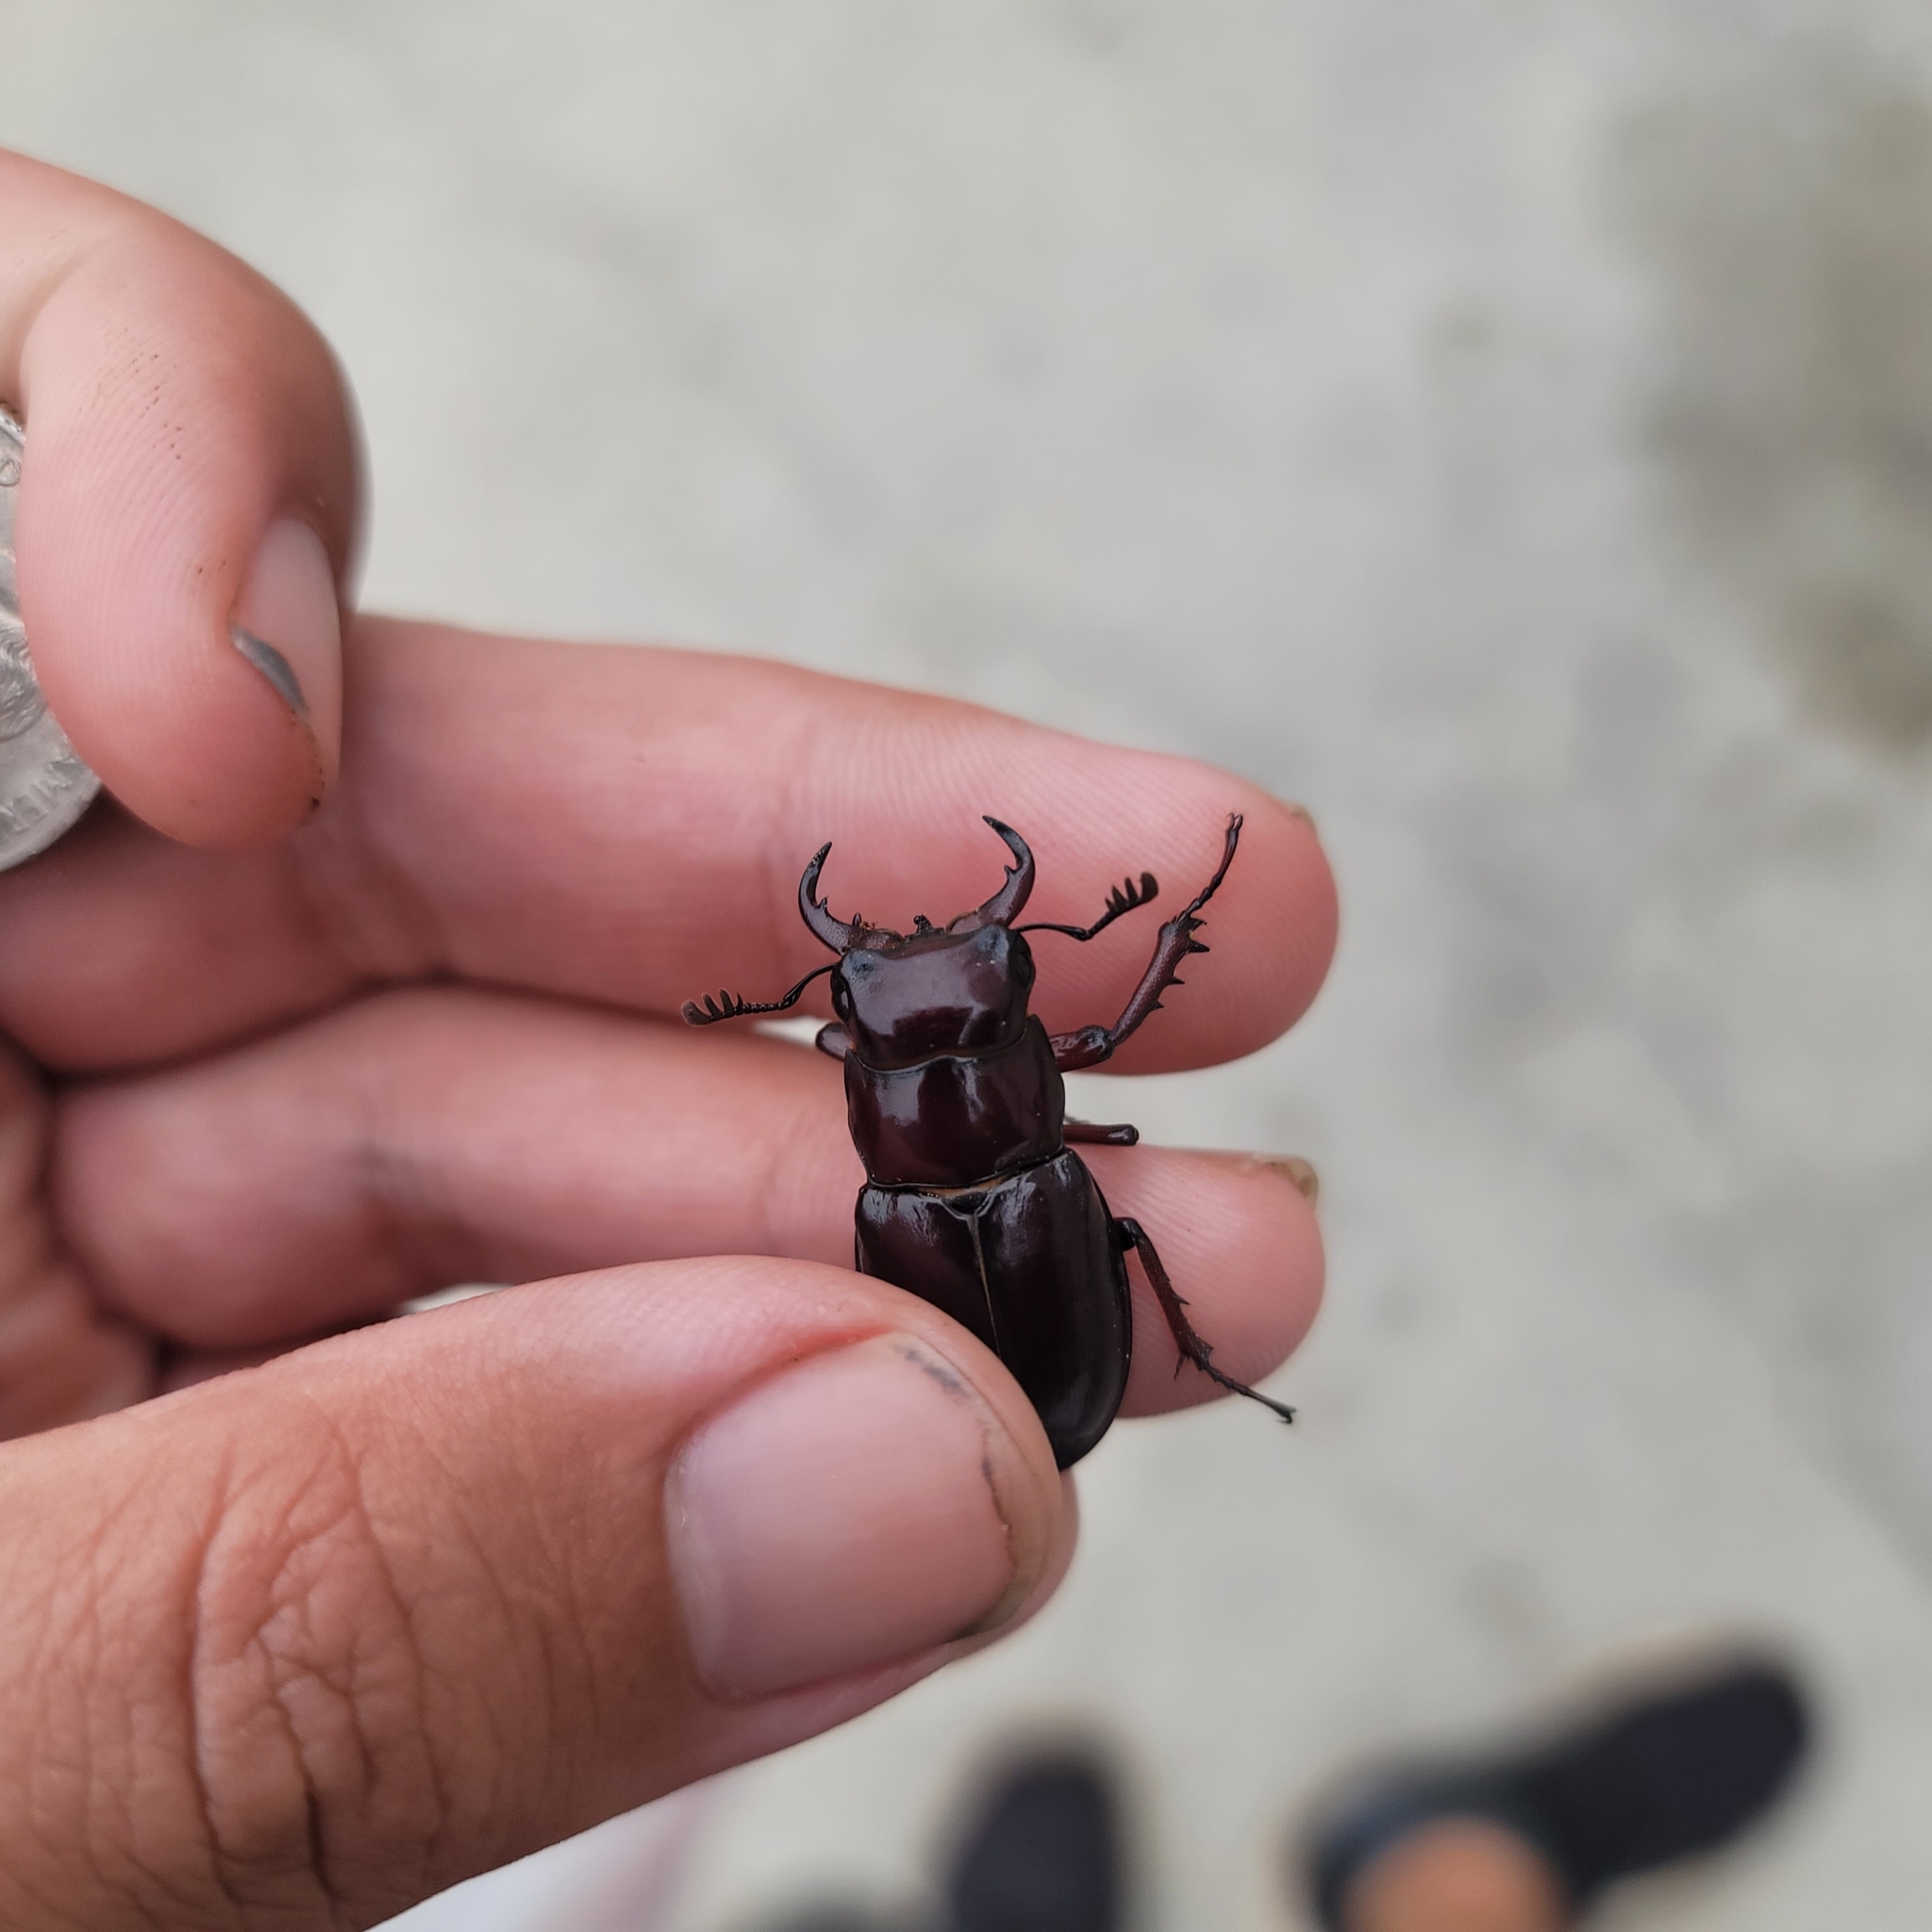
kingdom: Animalia
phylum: Arthropoda
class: Insecta
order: Coleoptera
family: Lucanidae
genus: Lucanus
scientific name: Lucanus capreolus
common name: Stag beetle
